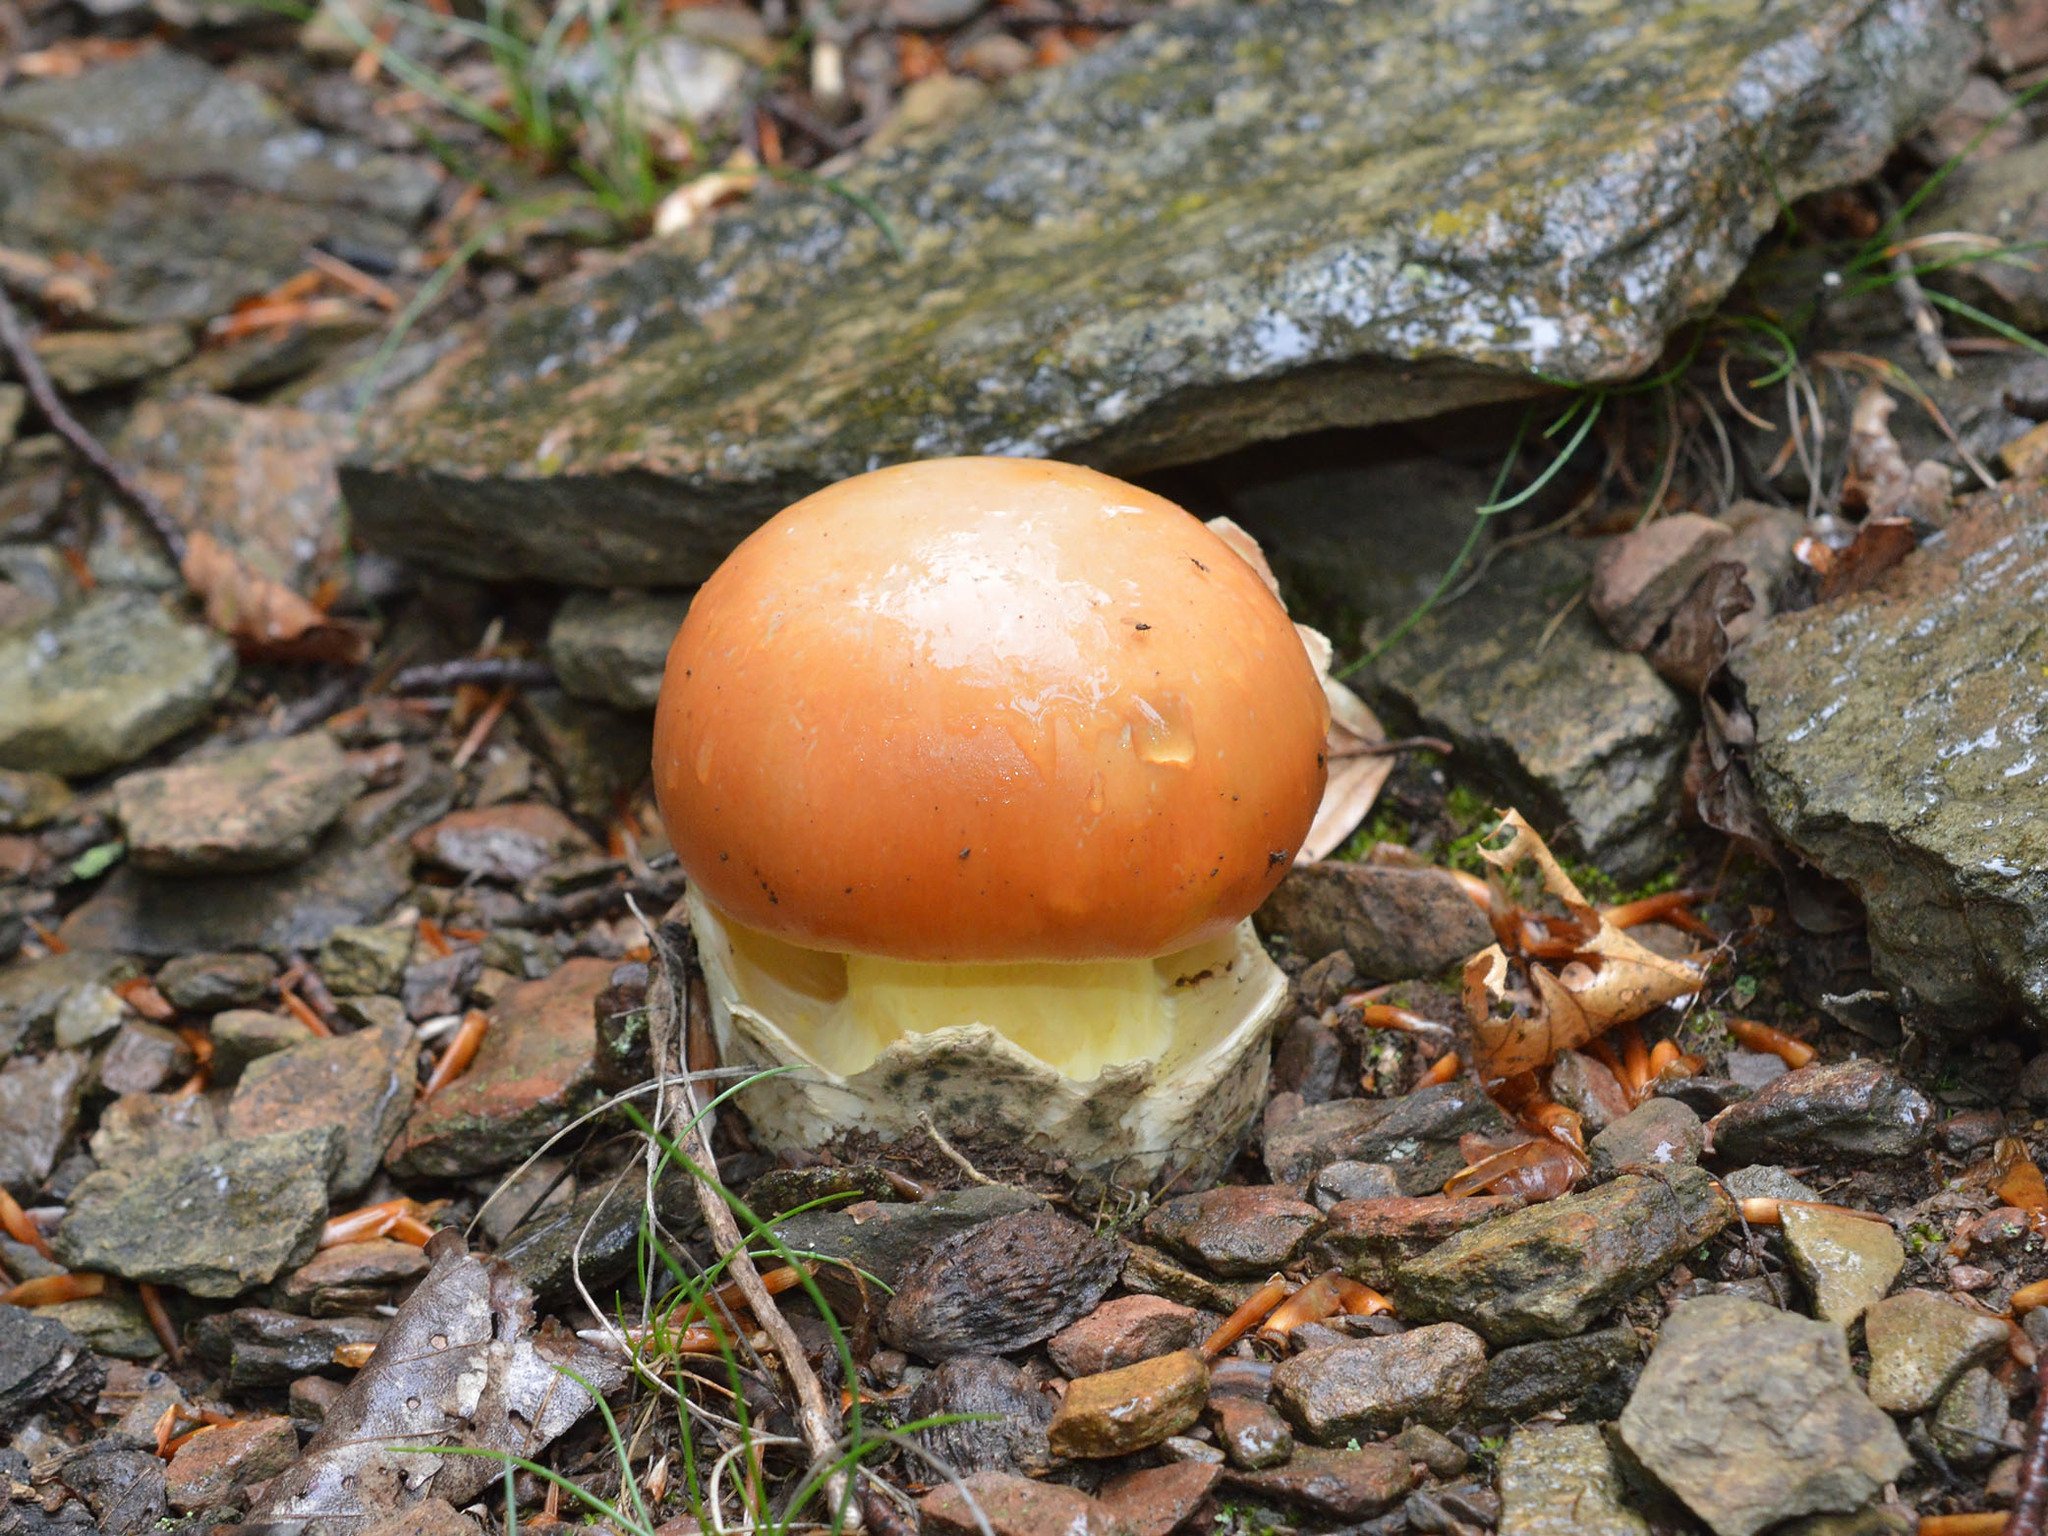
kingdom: Fungi
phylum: Basidiomycota
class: Agaricomycetes
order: Agaricales
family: Amanitaceae
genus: Amanita
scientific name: Amanita caesarea
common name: Caesar's amanita
